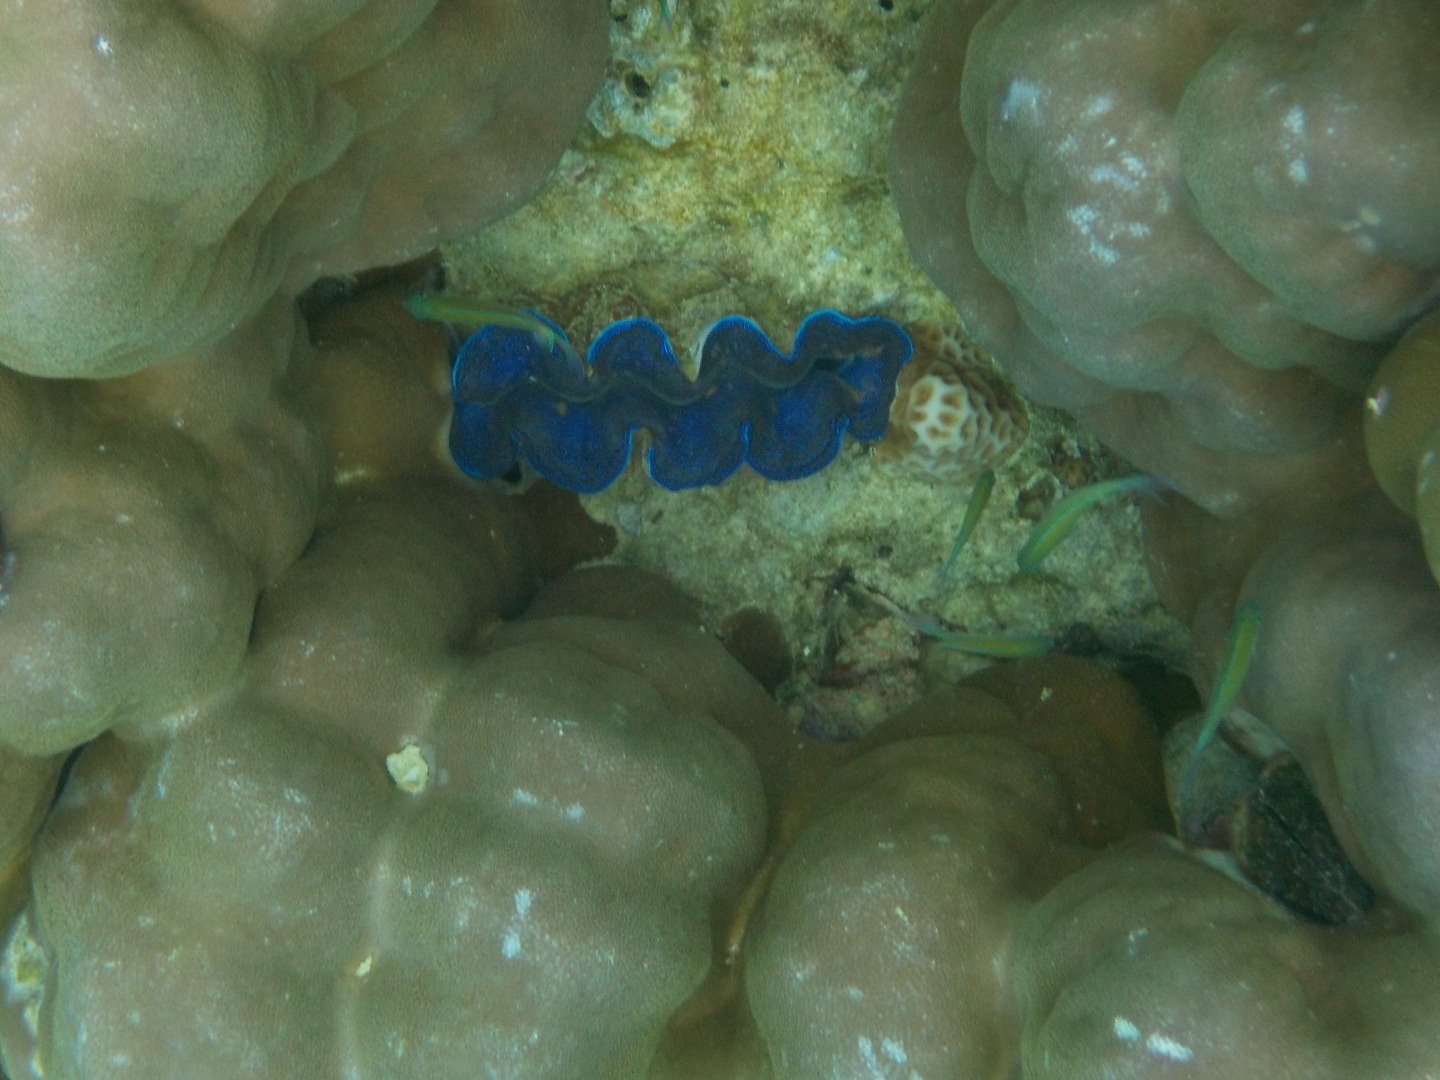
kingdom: Animalia
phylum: Mollusca
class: Bivalvia
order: Cardiida
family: Cardiidae
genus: Tridacna
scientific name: Tridacna crocea
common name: Boring clam
